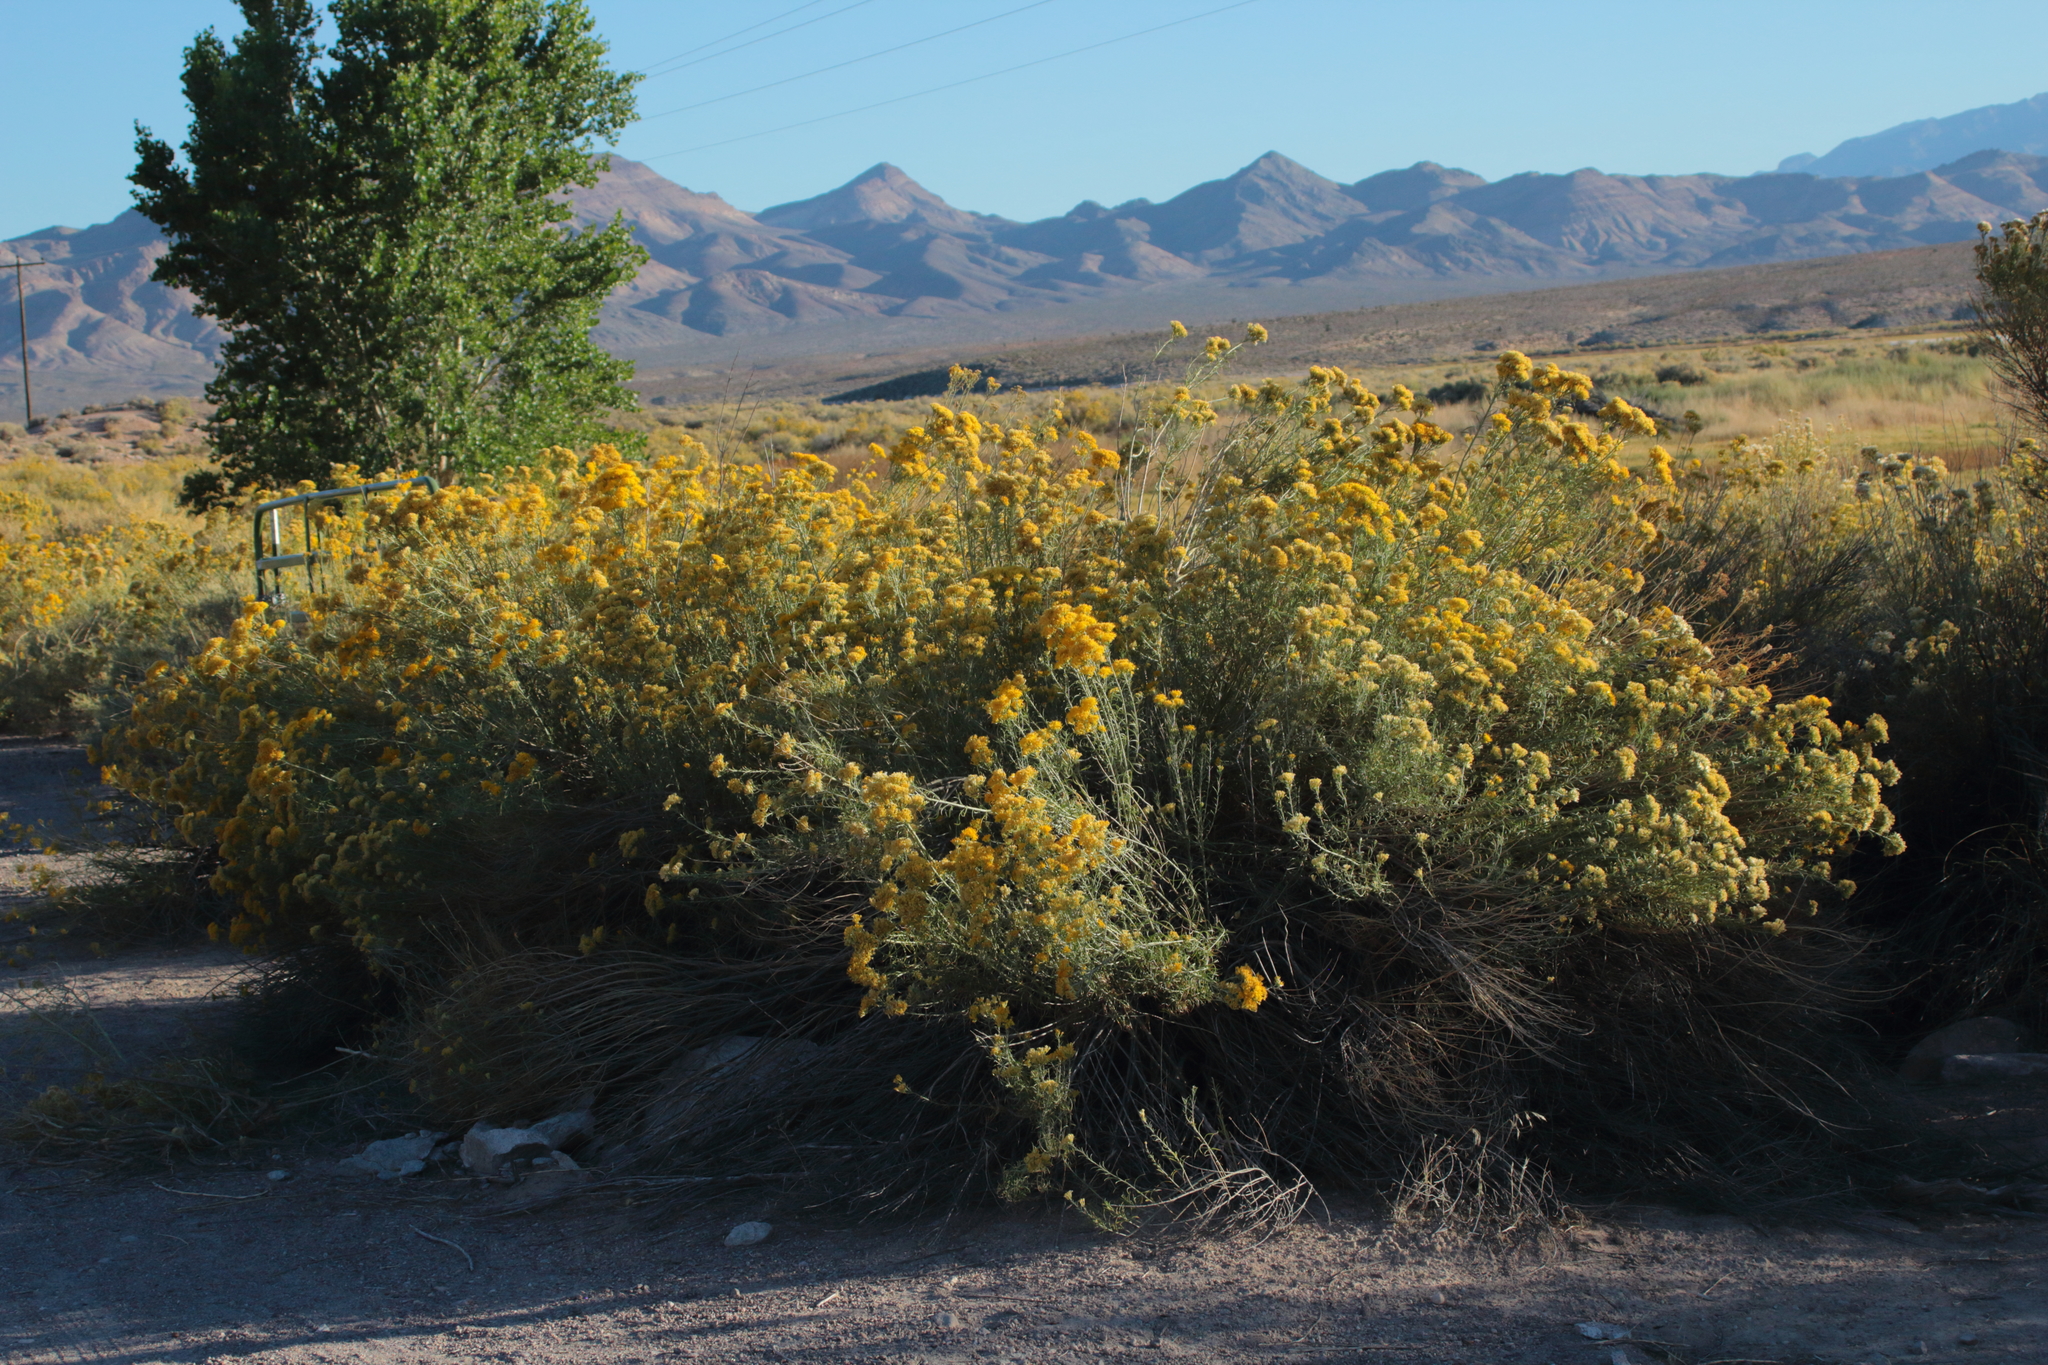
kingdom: Plantae
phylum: Tracheophyta
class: Magnoliopsida
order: Asterales
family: Asteraceae
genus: Ericameria
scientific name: Ericameria nauseosa
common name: Rubber rabbitbrush
